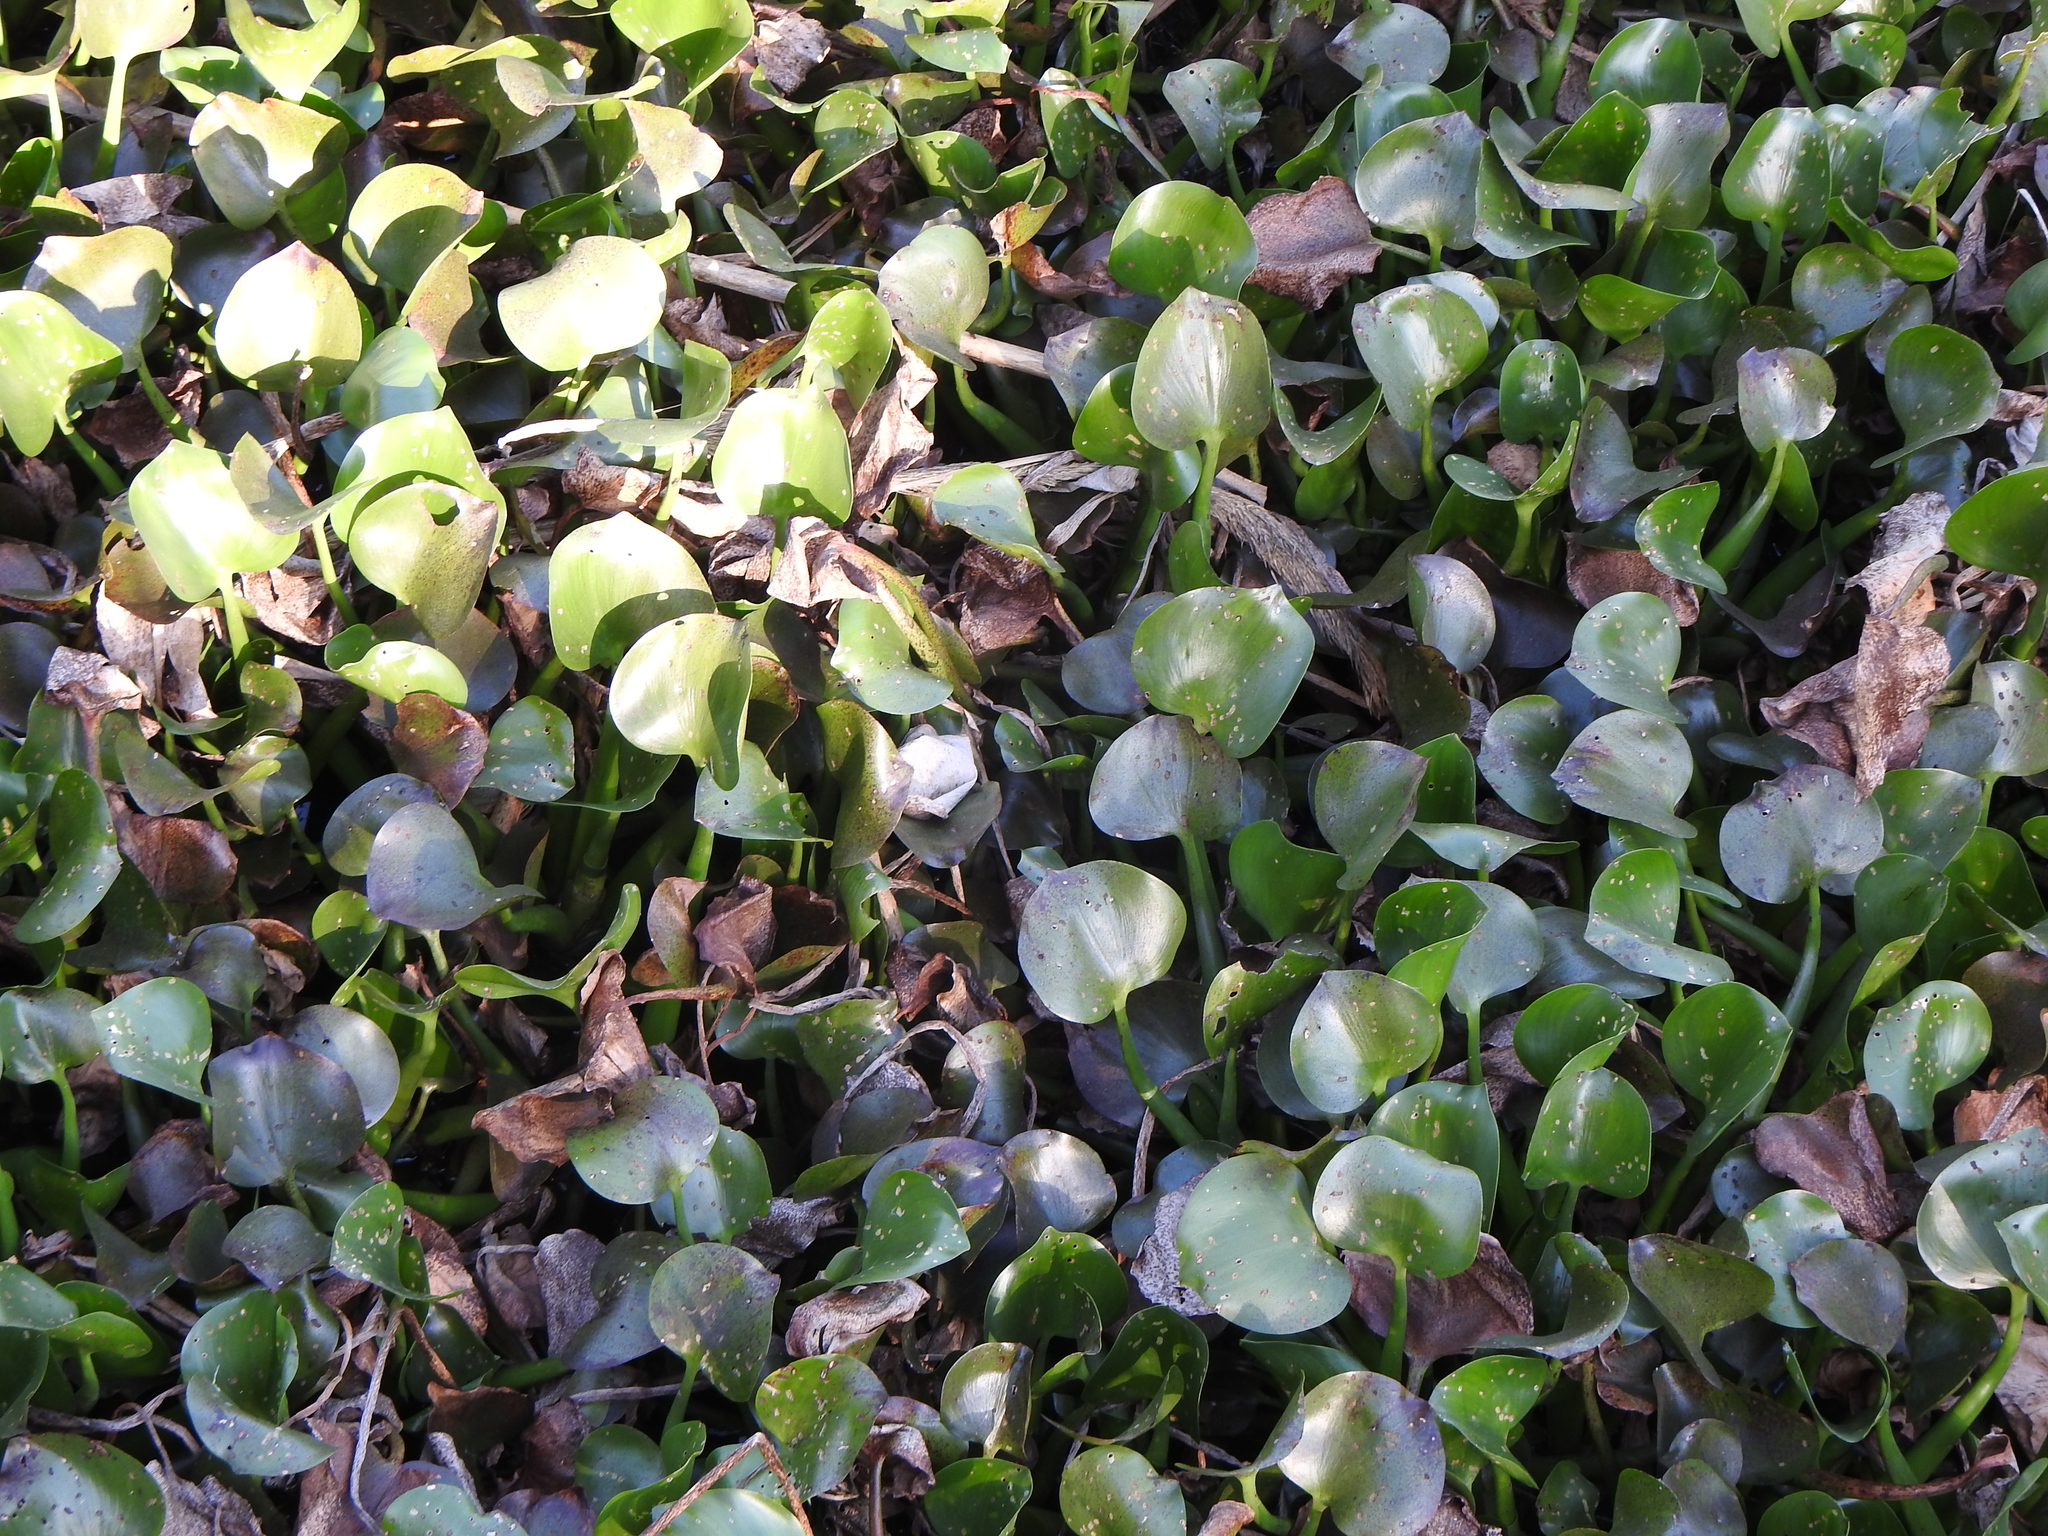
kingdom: Plantae
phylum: Tracheophyta
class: Liliopsida
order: Commelinales
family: Pontederiaceae
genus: Pontederia
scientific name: Pontederia crassipes
